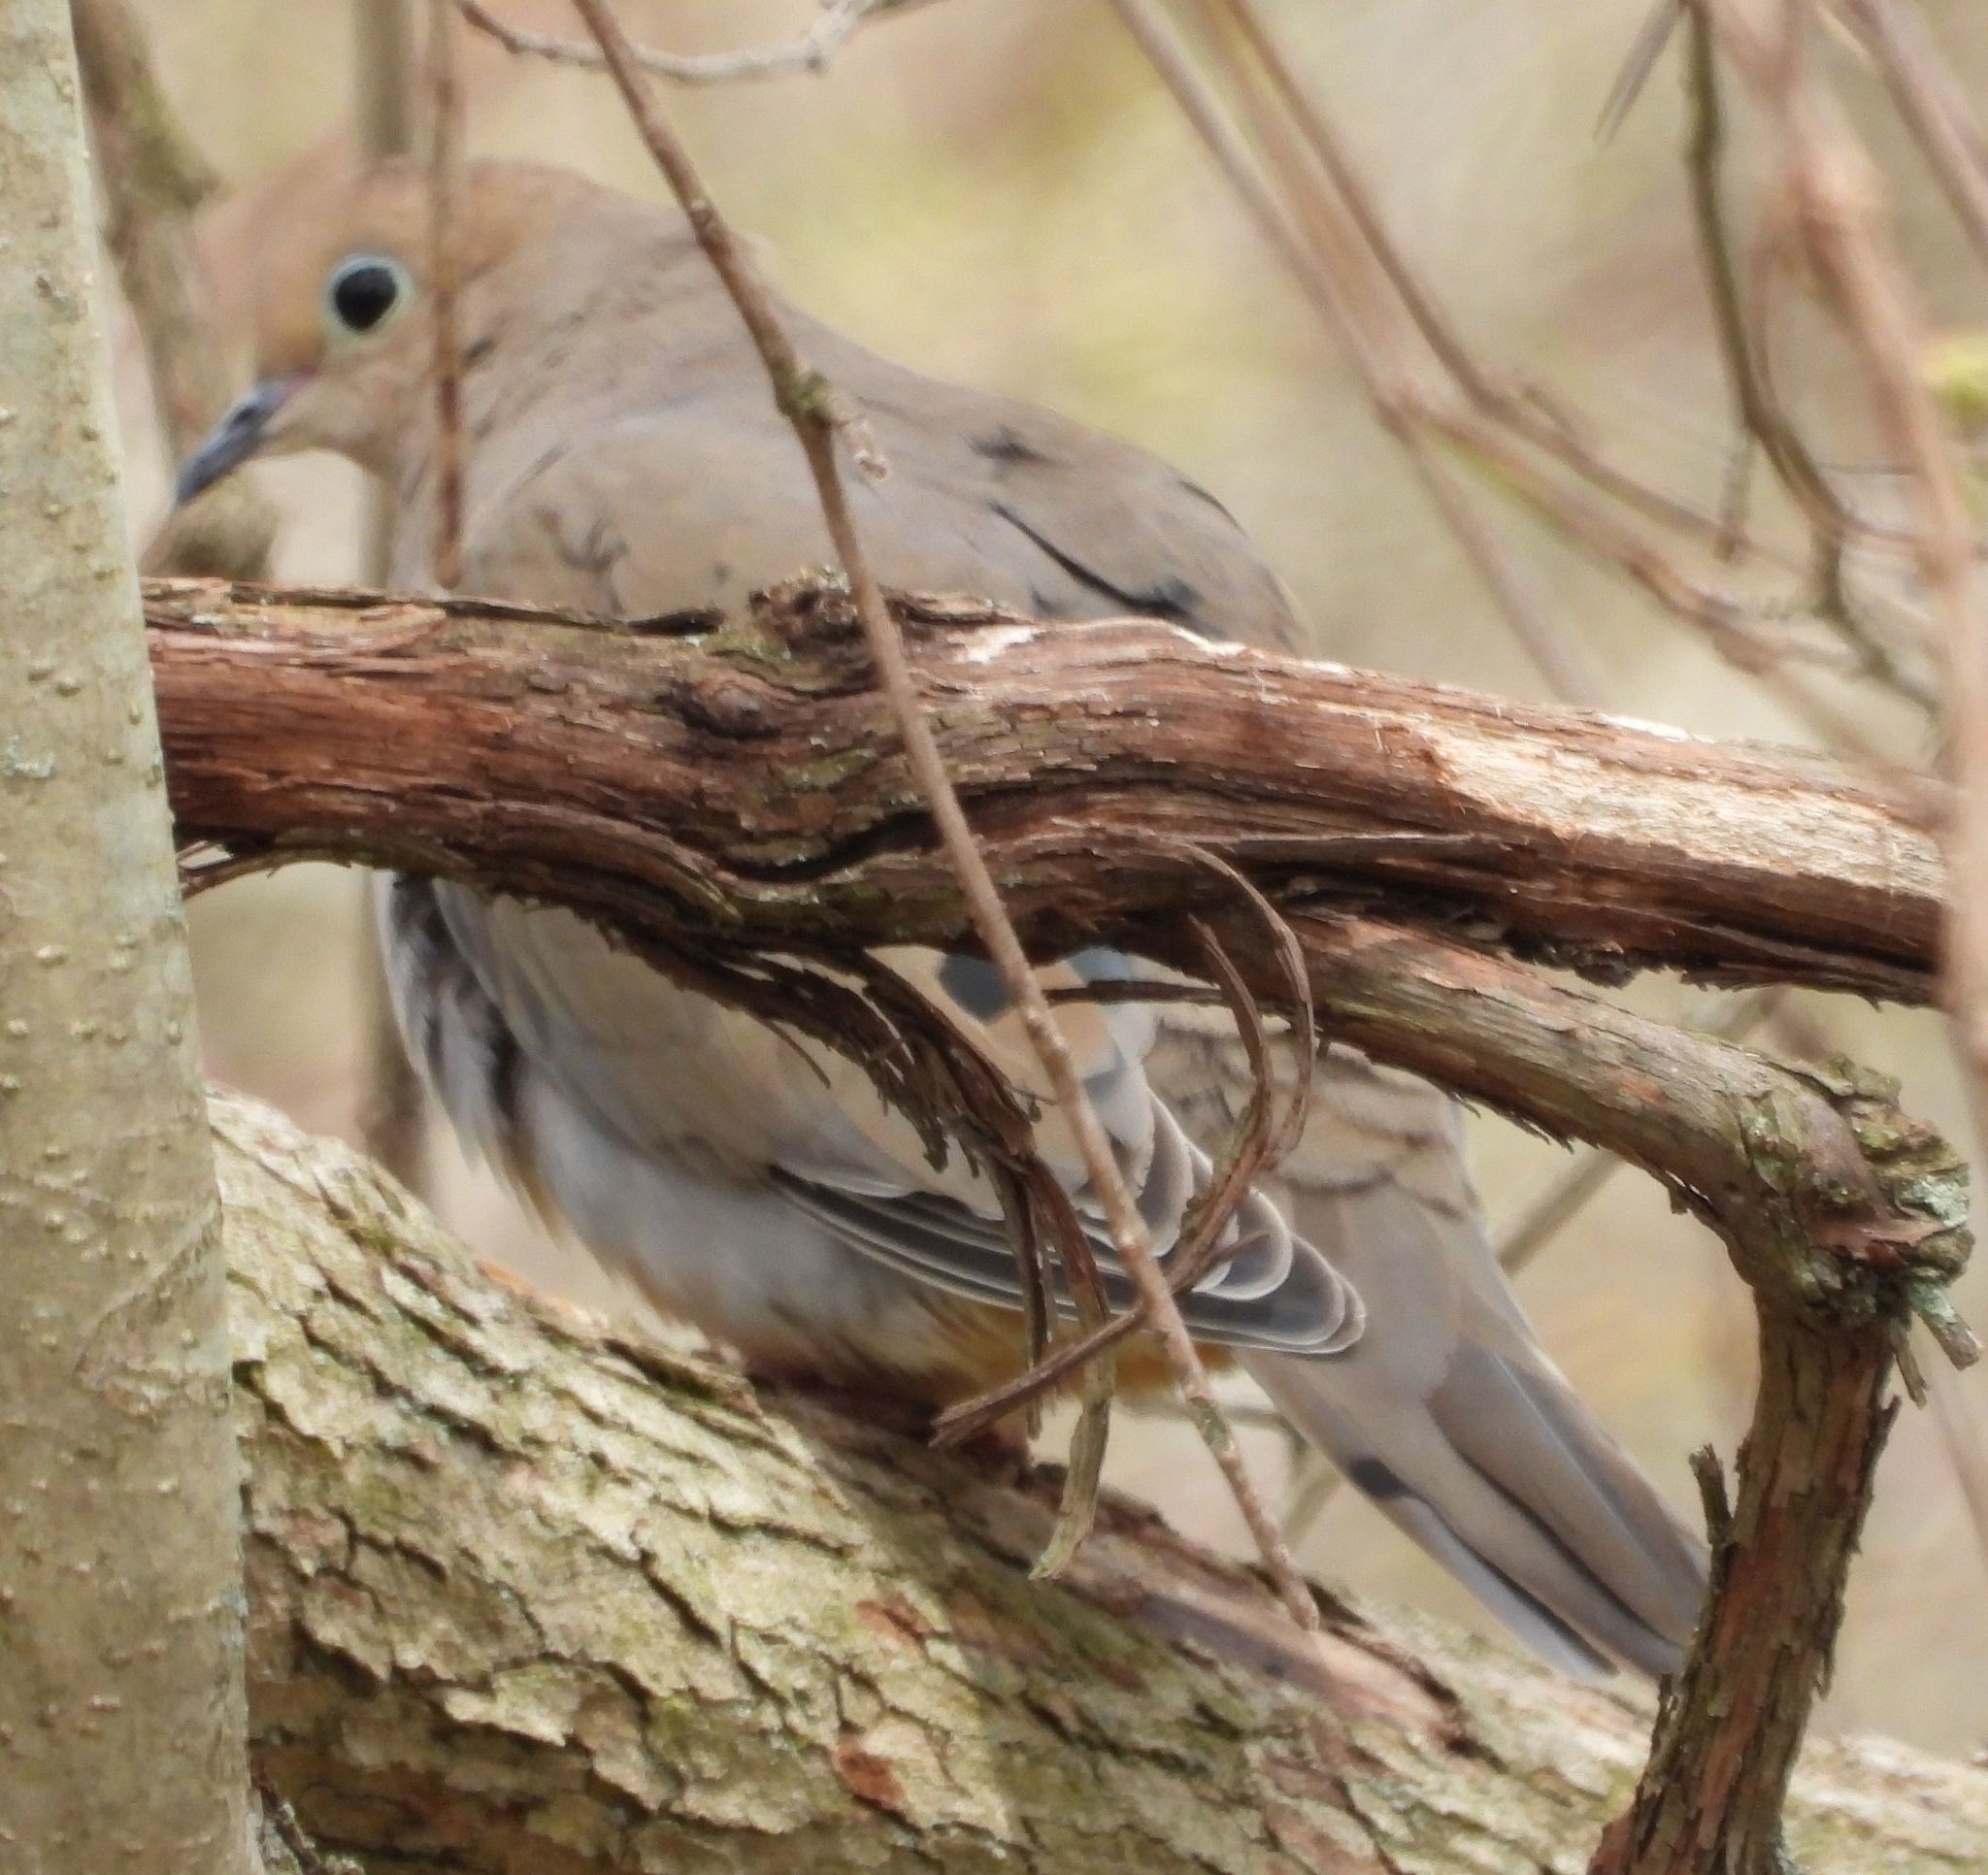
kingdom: Animalia
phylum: Chordata
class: Aves
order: Columbiformes
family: Columbidae
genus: Zenaida
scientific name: Zenaida macroura
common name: Mourning dove
